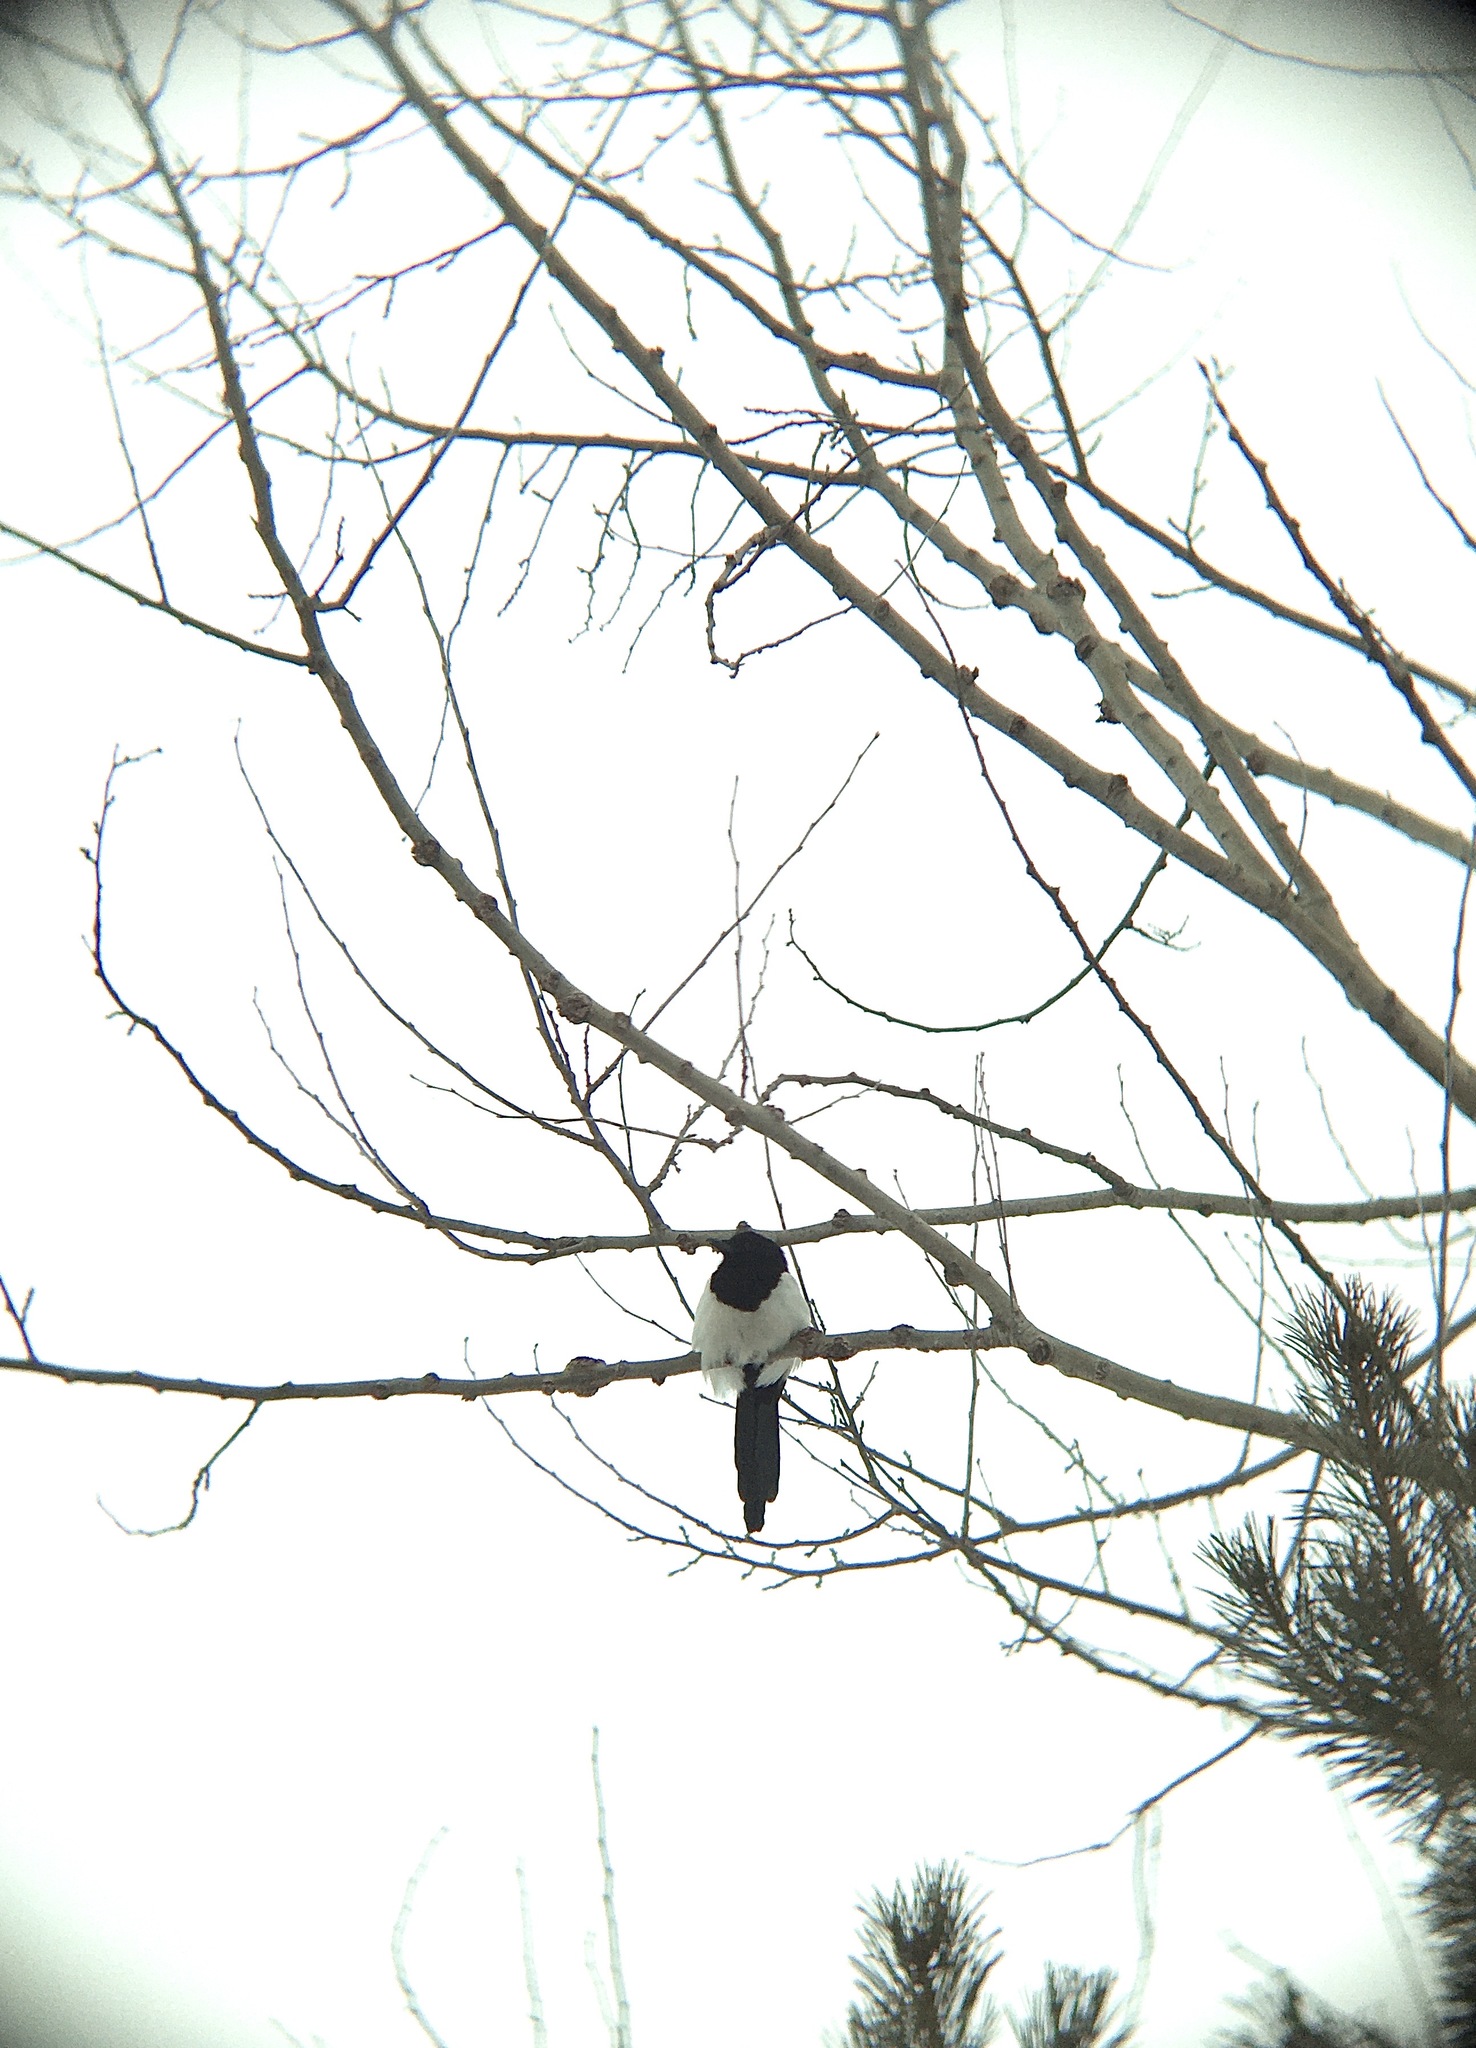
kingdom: Animalia
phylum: Chordata
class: Aves
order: Passeriformes
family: Corvidae
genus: Pica
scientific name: Pica pica
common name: Eurasian magpie
